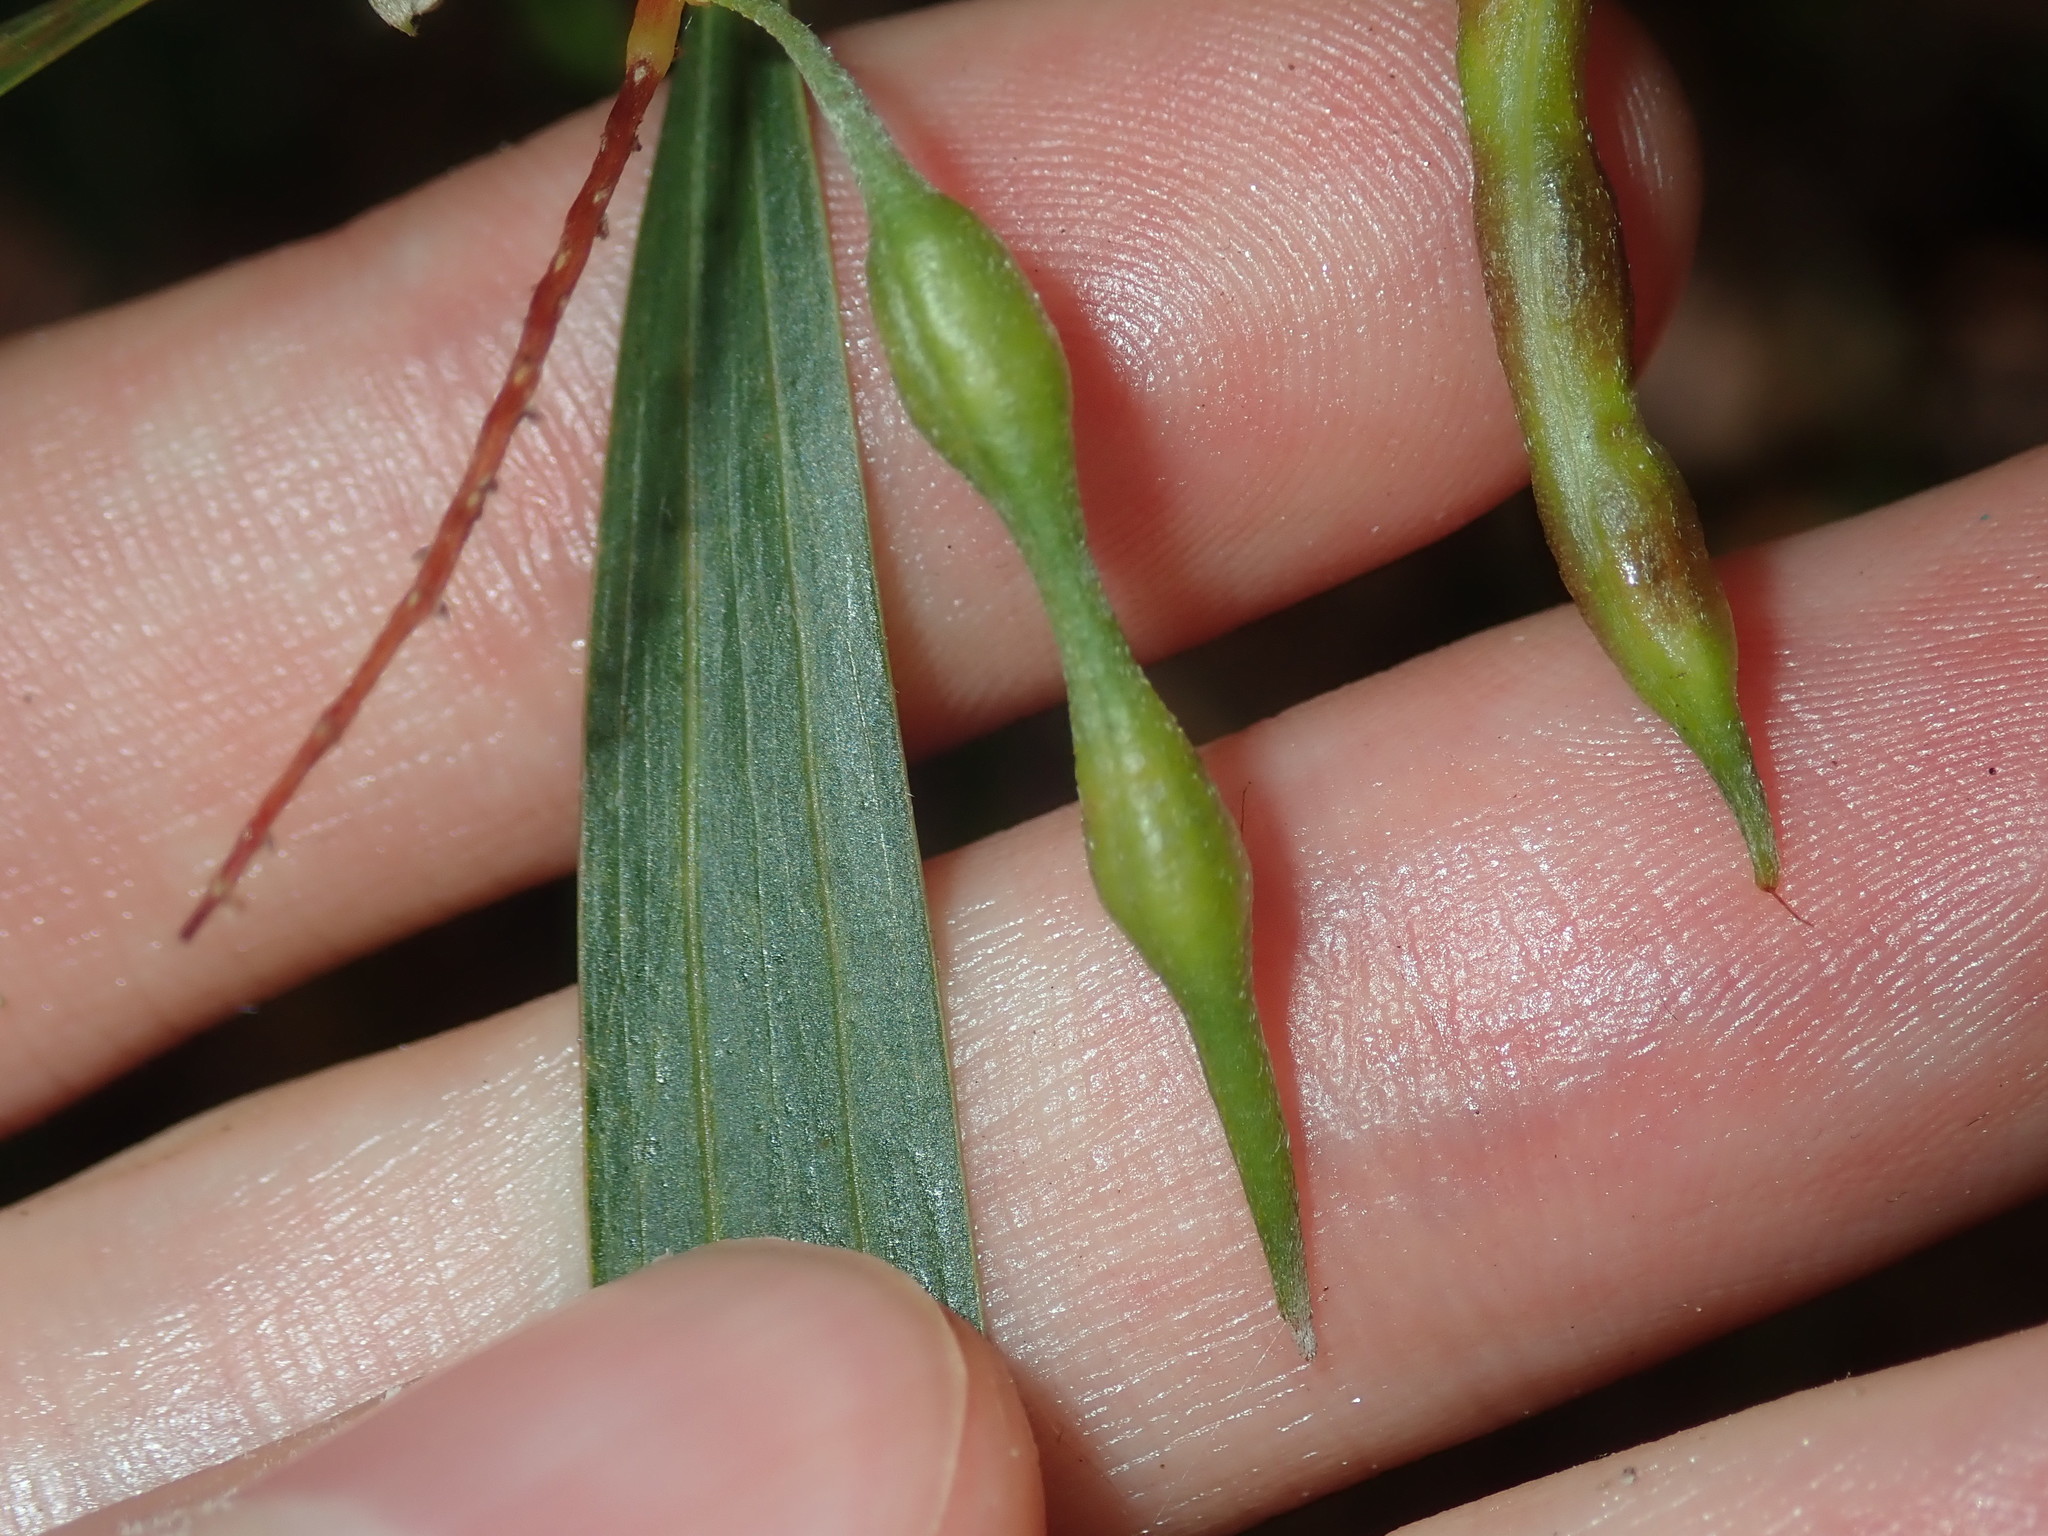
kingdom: Plantae
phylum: Tracheophyta
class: Magnoliopsida
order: Fabales
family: Fabaceae
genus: Acacia
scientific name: Acacia longifolia
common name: Sydney golden wattle
